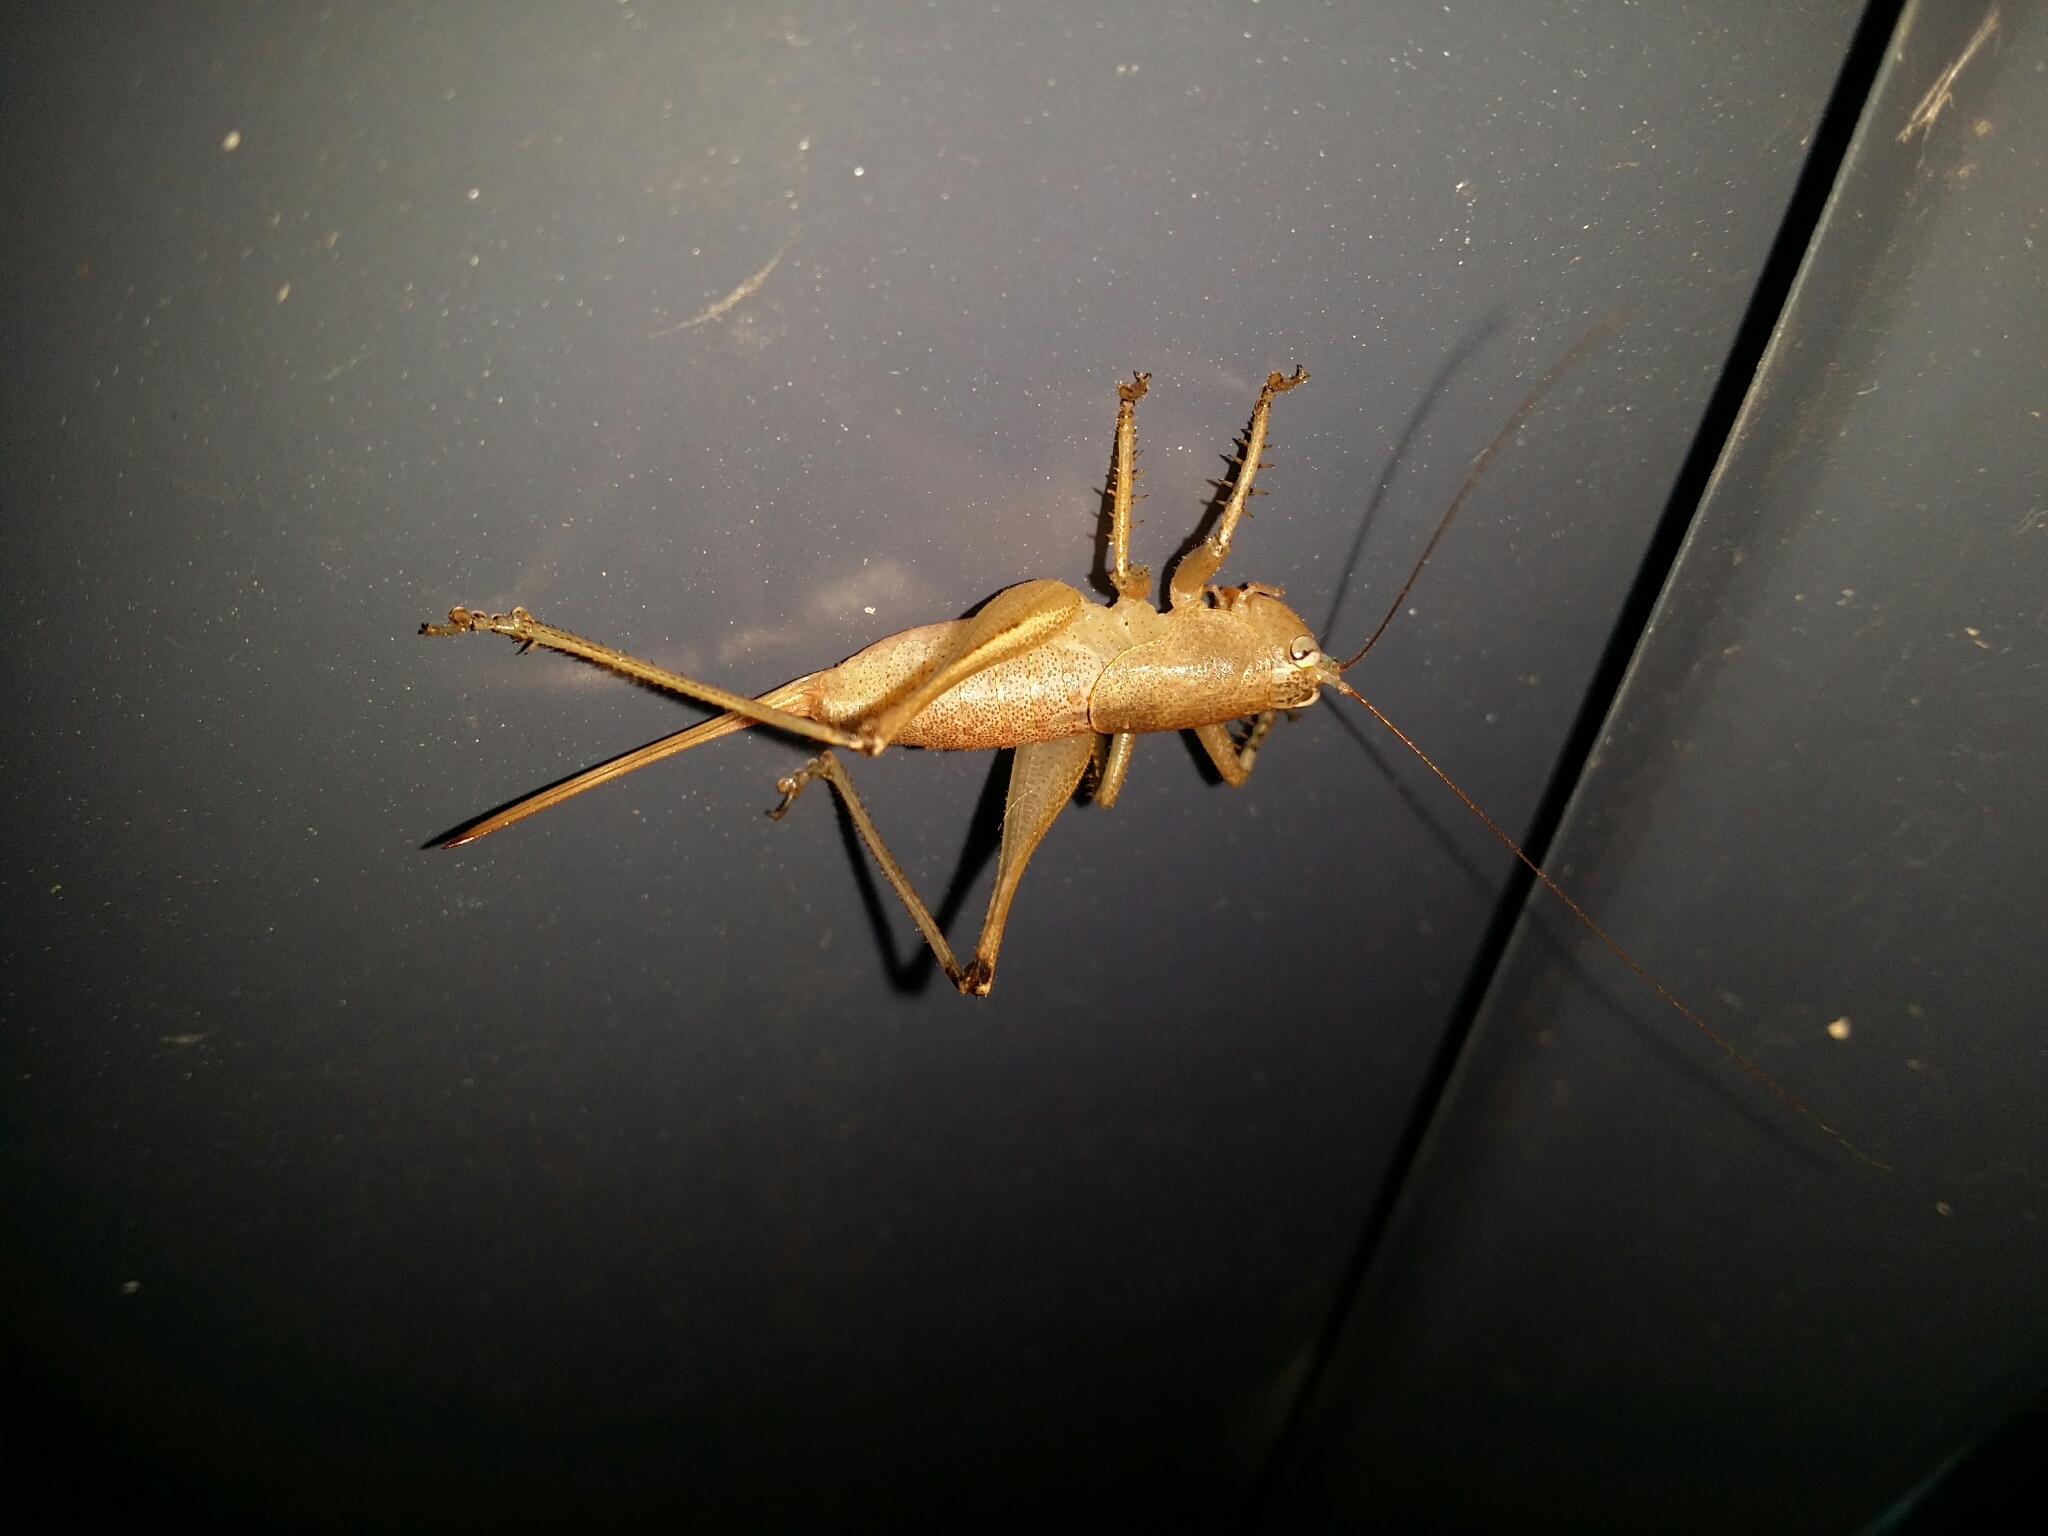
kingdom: Animalia
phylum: Arthropoda
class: Insecta
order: Orthoptera
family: Tettigoniidae
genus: Requena
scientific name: Requena verticalis
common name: Common western requena
